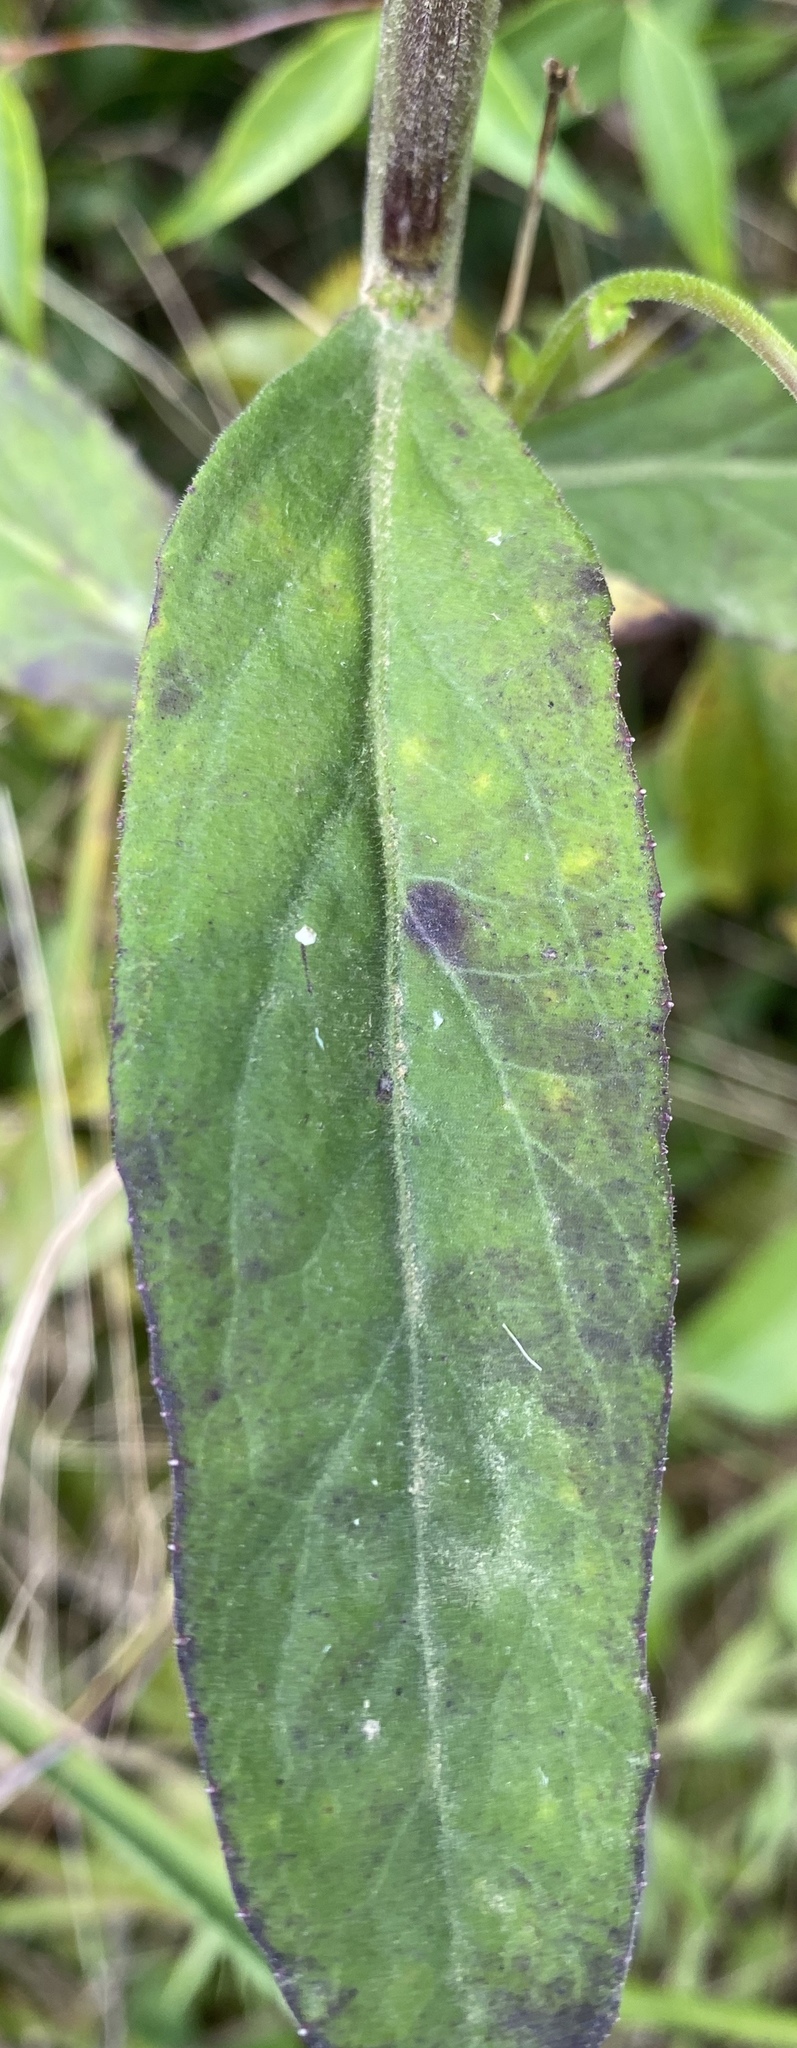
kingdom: Plantae
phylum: Tracheophyta
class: Magnoliopsida
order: Asterales
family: Campanulaceae
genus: Lobelia
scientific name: Lobelia puberula
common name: Purple dewdrop
